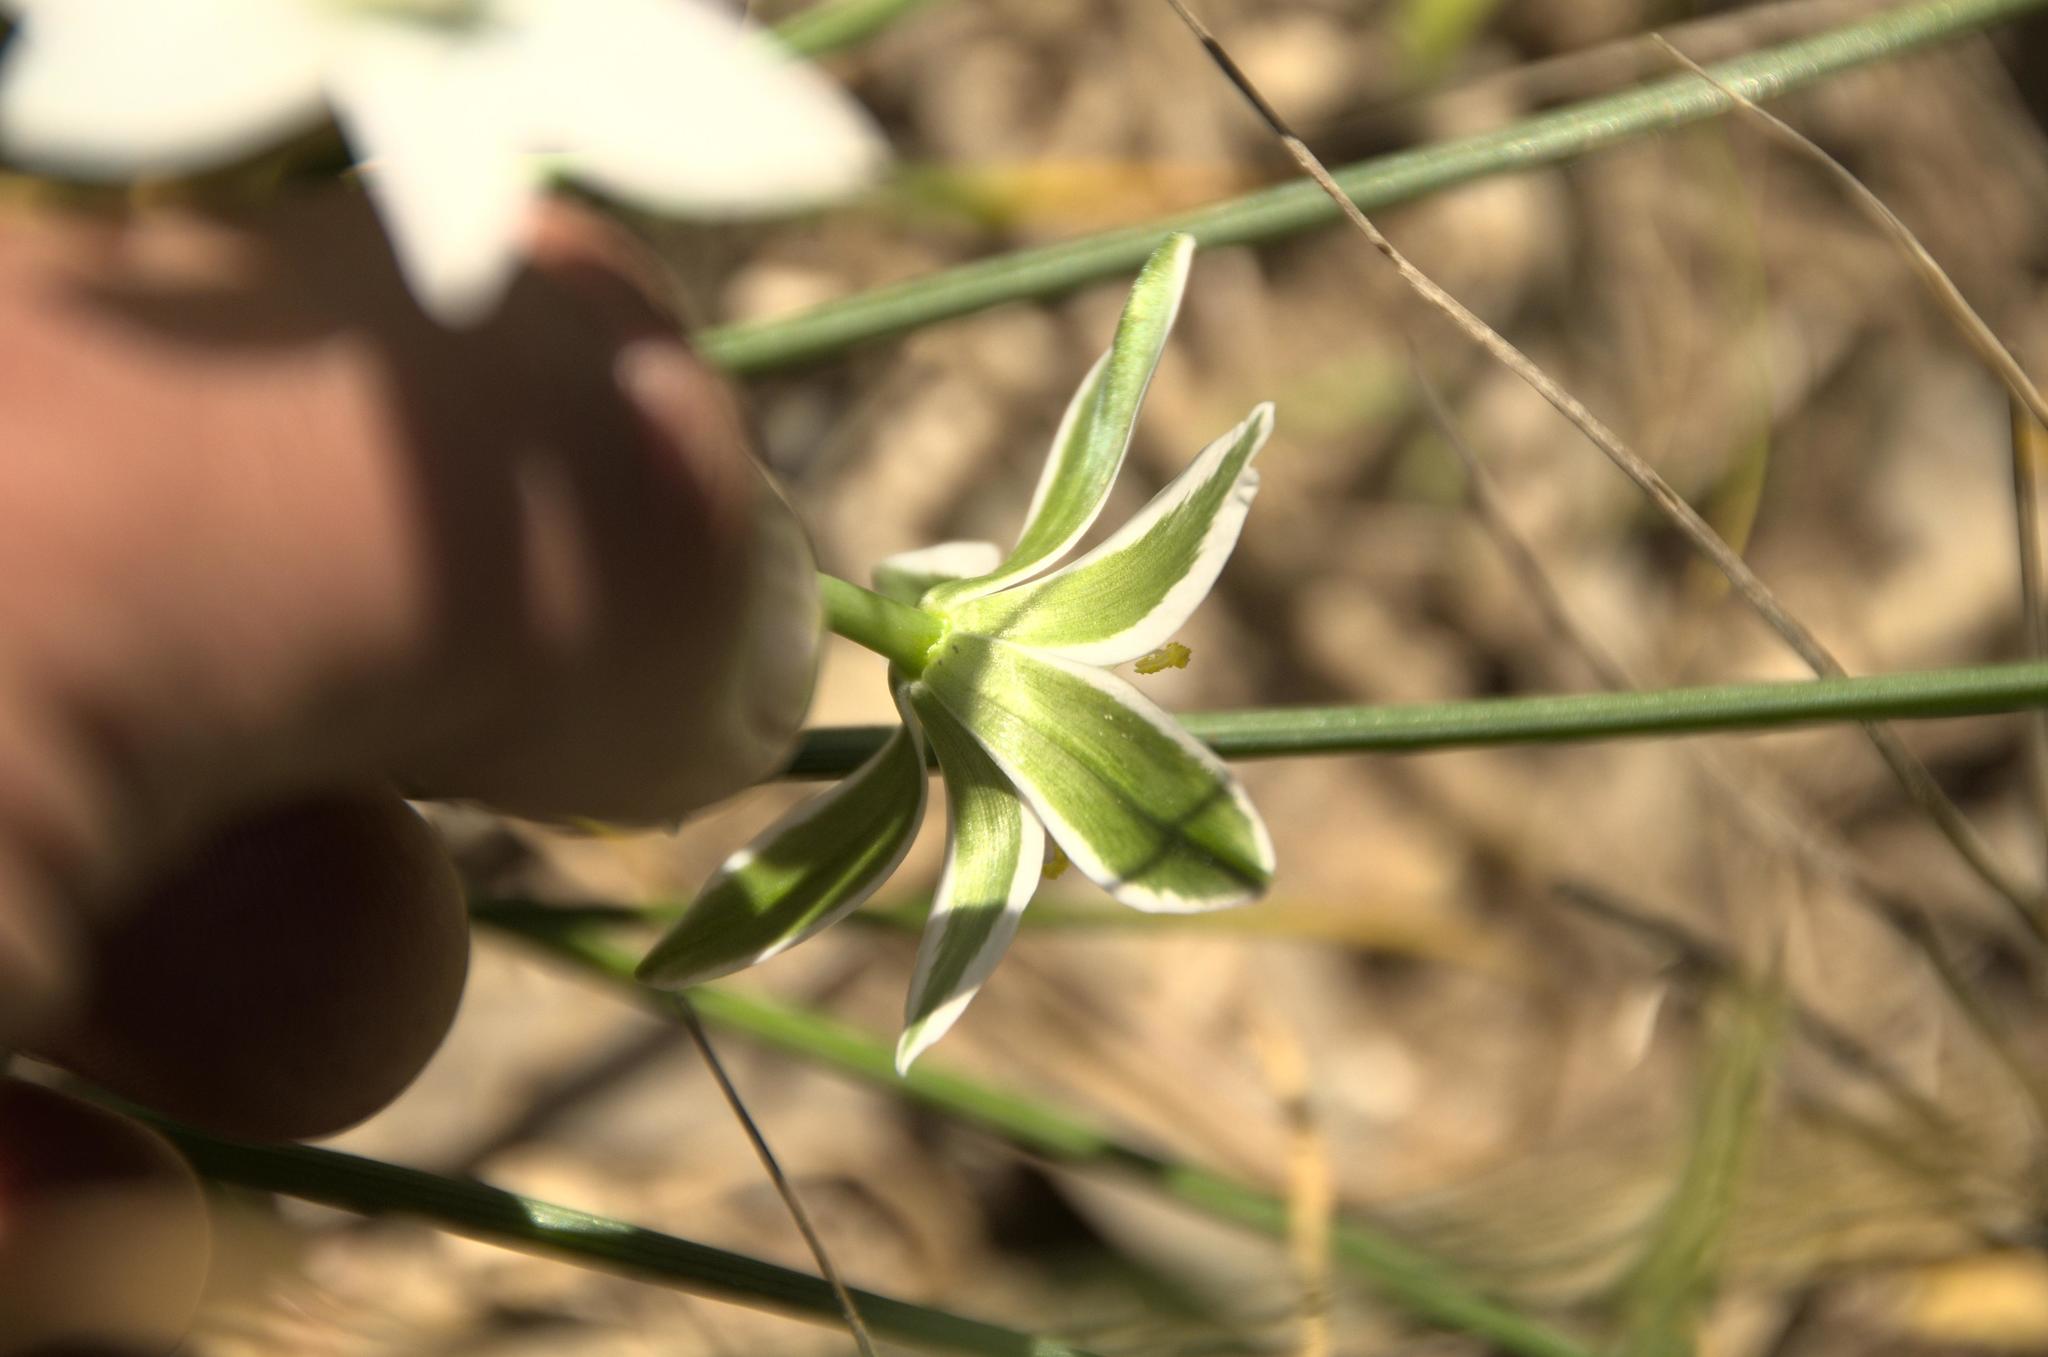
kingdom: Plantae
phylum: Tracheophyta
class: Liliopsida
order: Asparagales
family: Asparagaceae
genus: Ornithogalum
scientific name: Ornithogalum umbellatum
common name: Garden star-of-bethlehem
